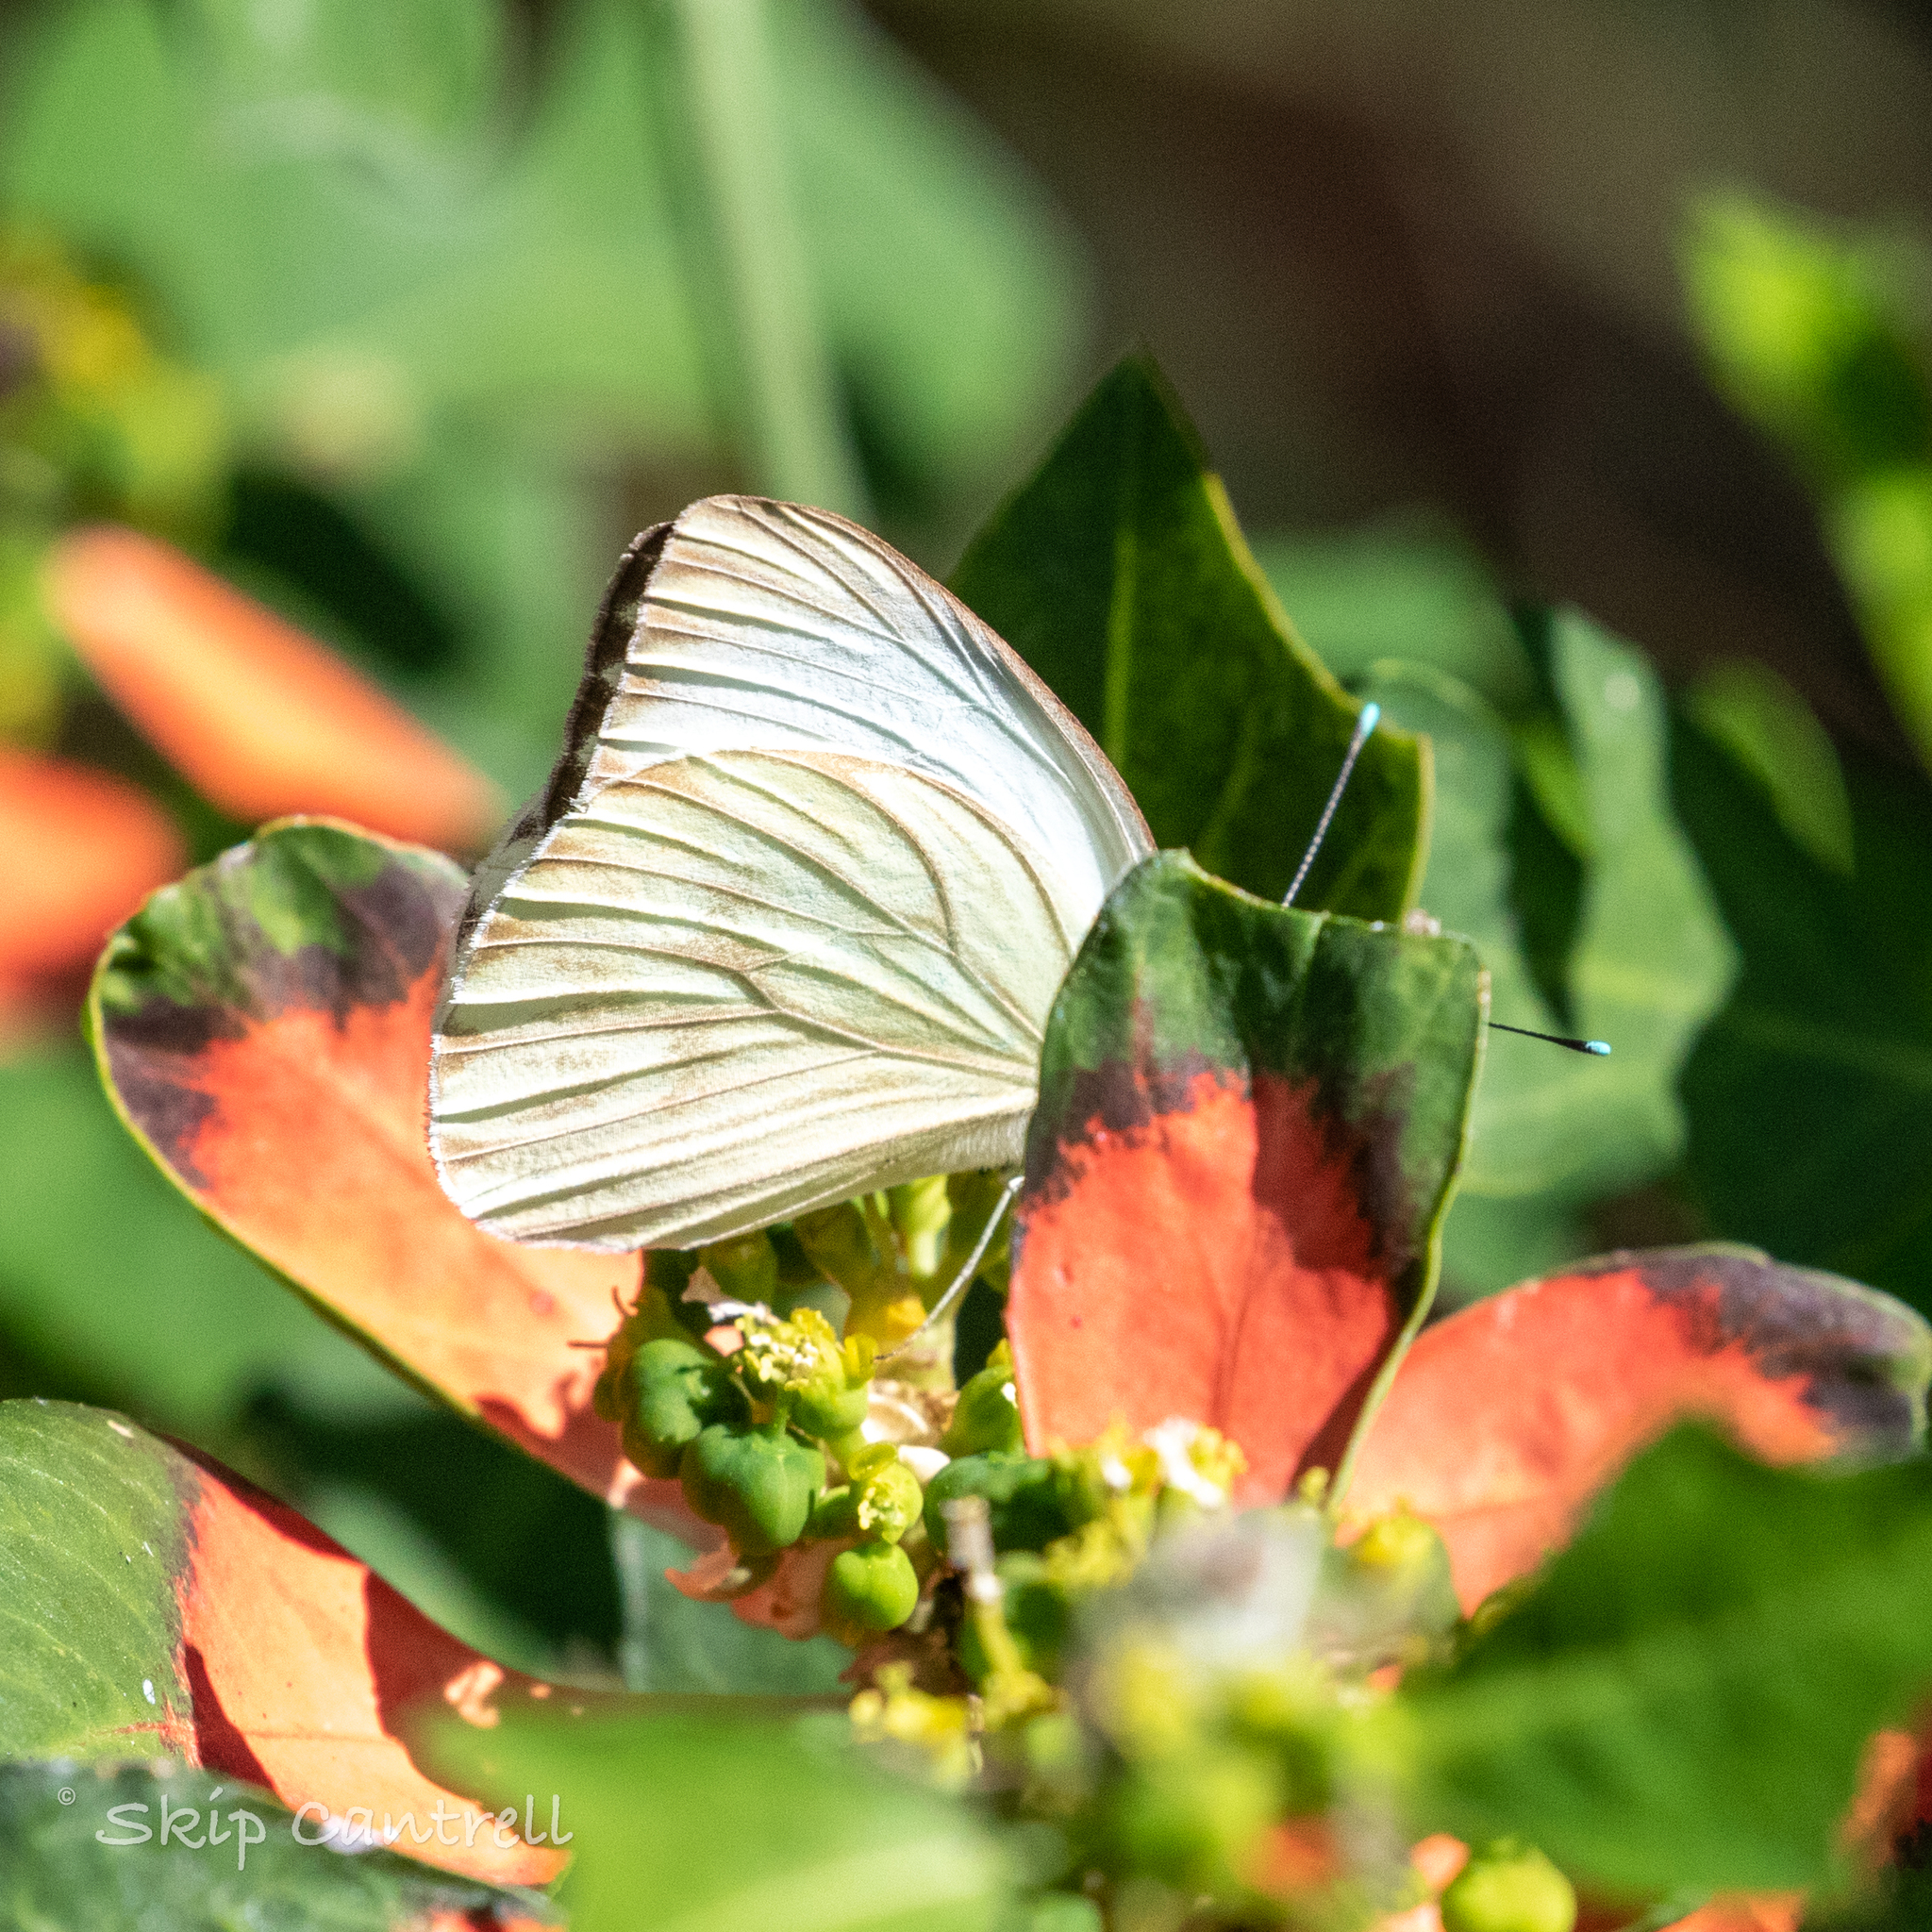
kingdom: Animalia
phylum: Arthropoda
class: Insecta
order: Lepidoptera
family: Pieridae
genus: Ascia
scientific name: Ascia monuste
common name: Great southern white
